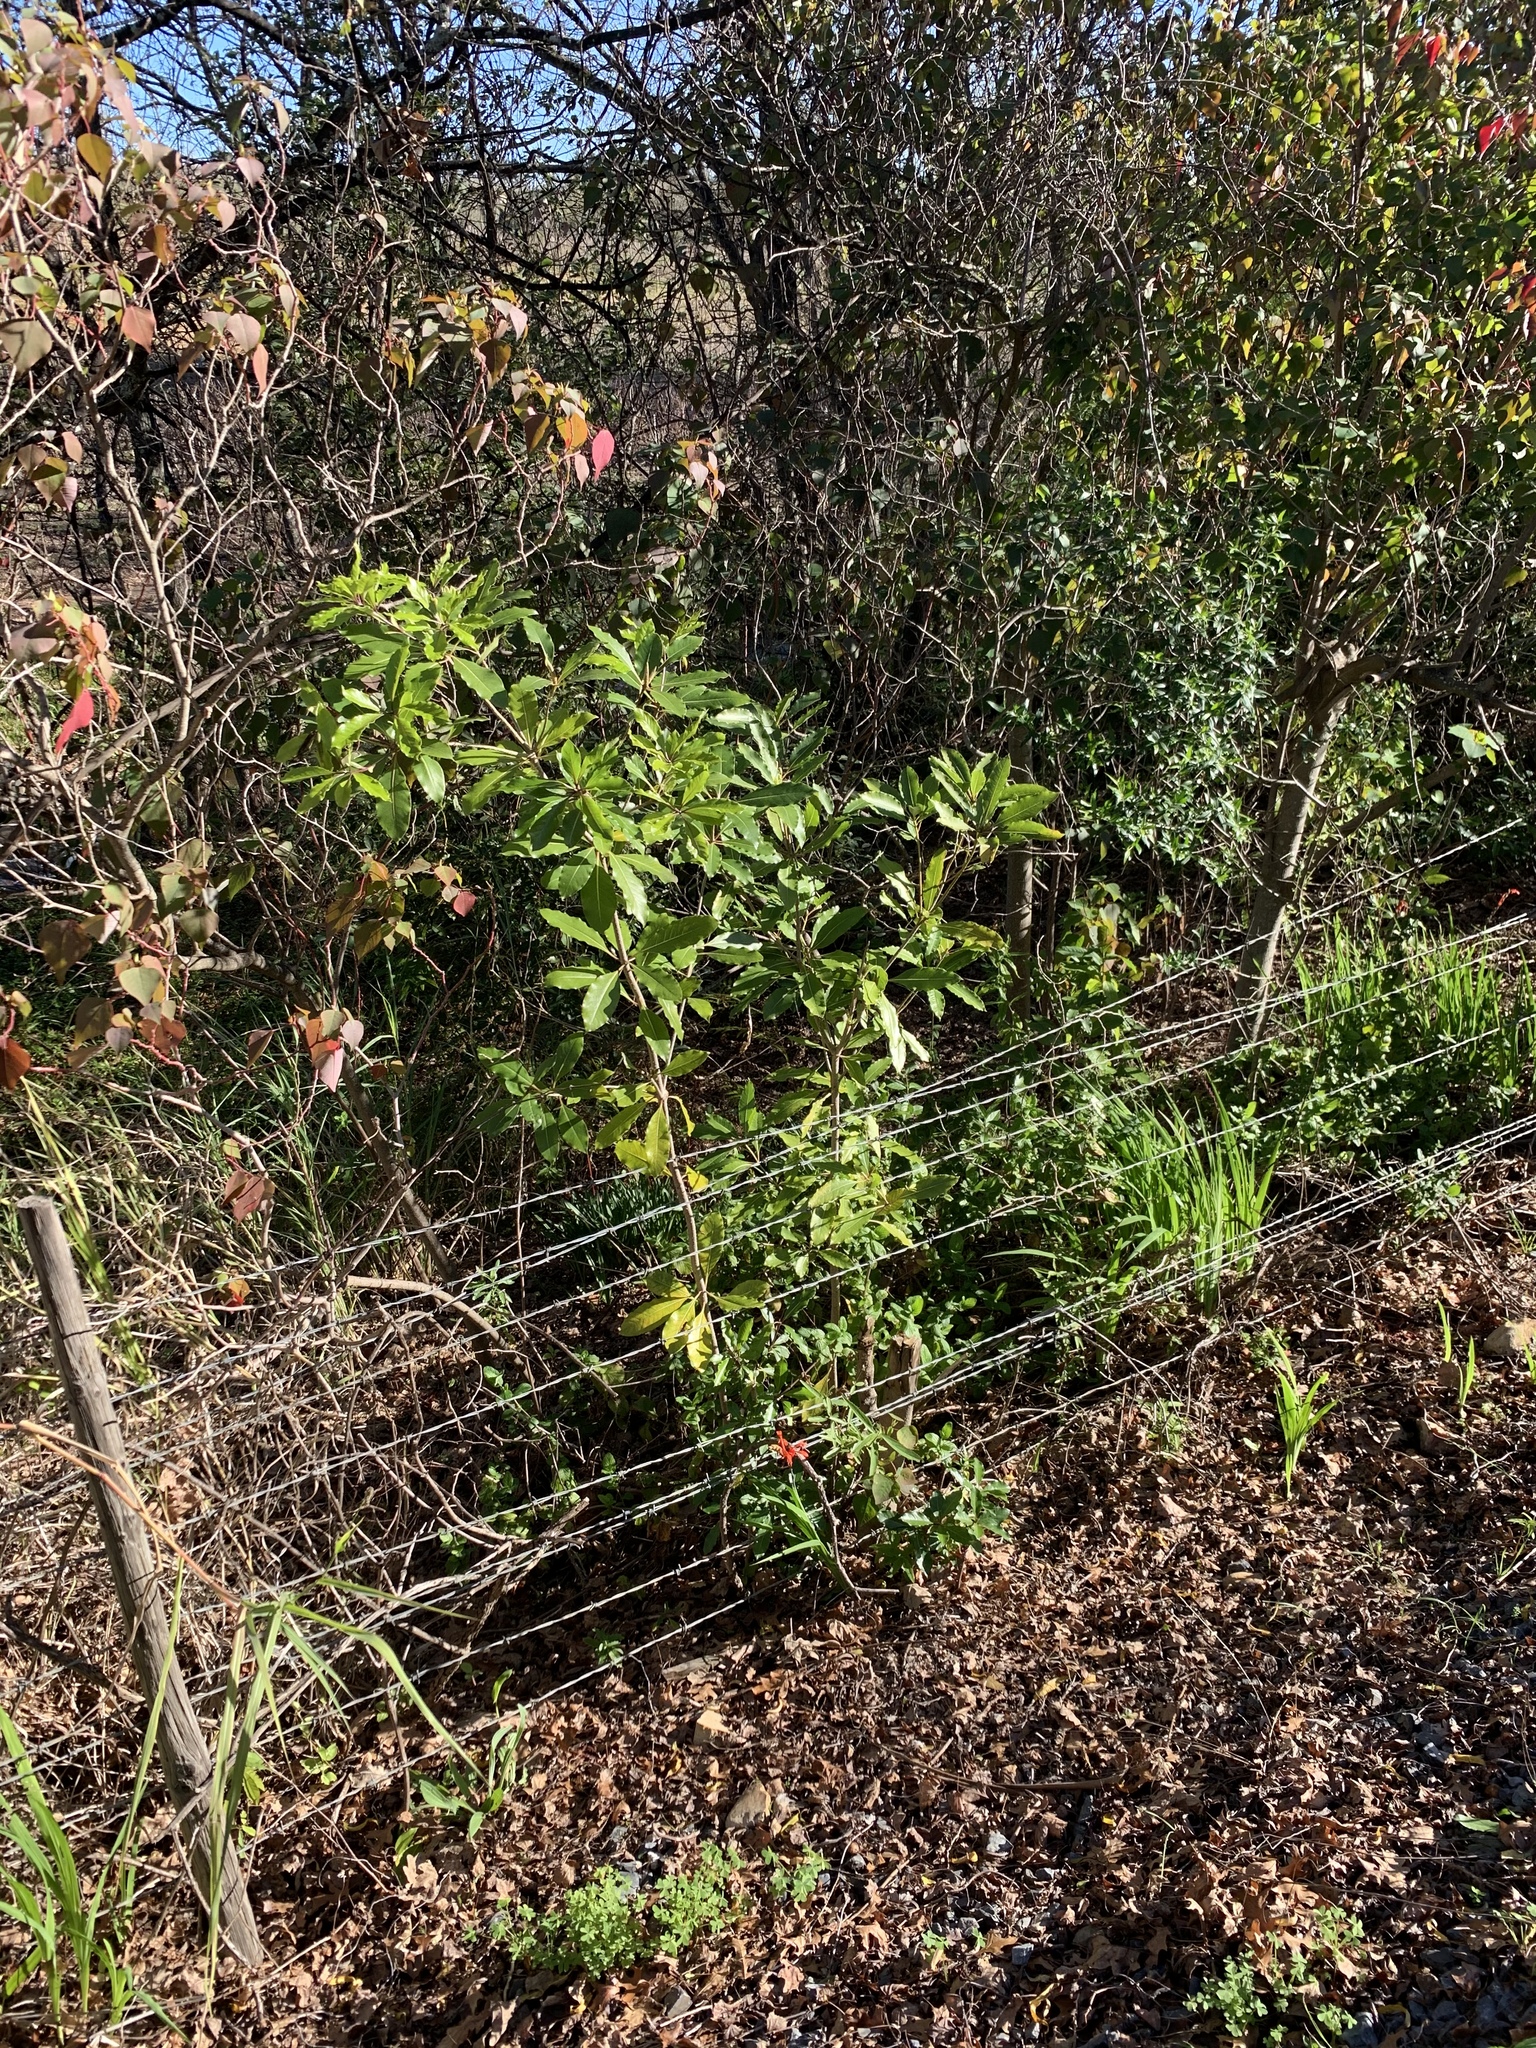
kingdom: Plantae
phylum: Tracheophyta
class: Magnoliopsida
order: Apiales
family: Pittosporaceae
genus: Pittosporum
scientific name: Pittosporum undulatum
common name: Australian cheesewood
